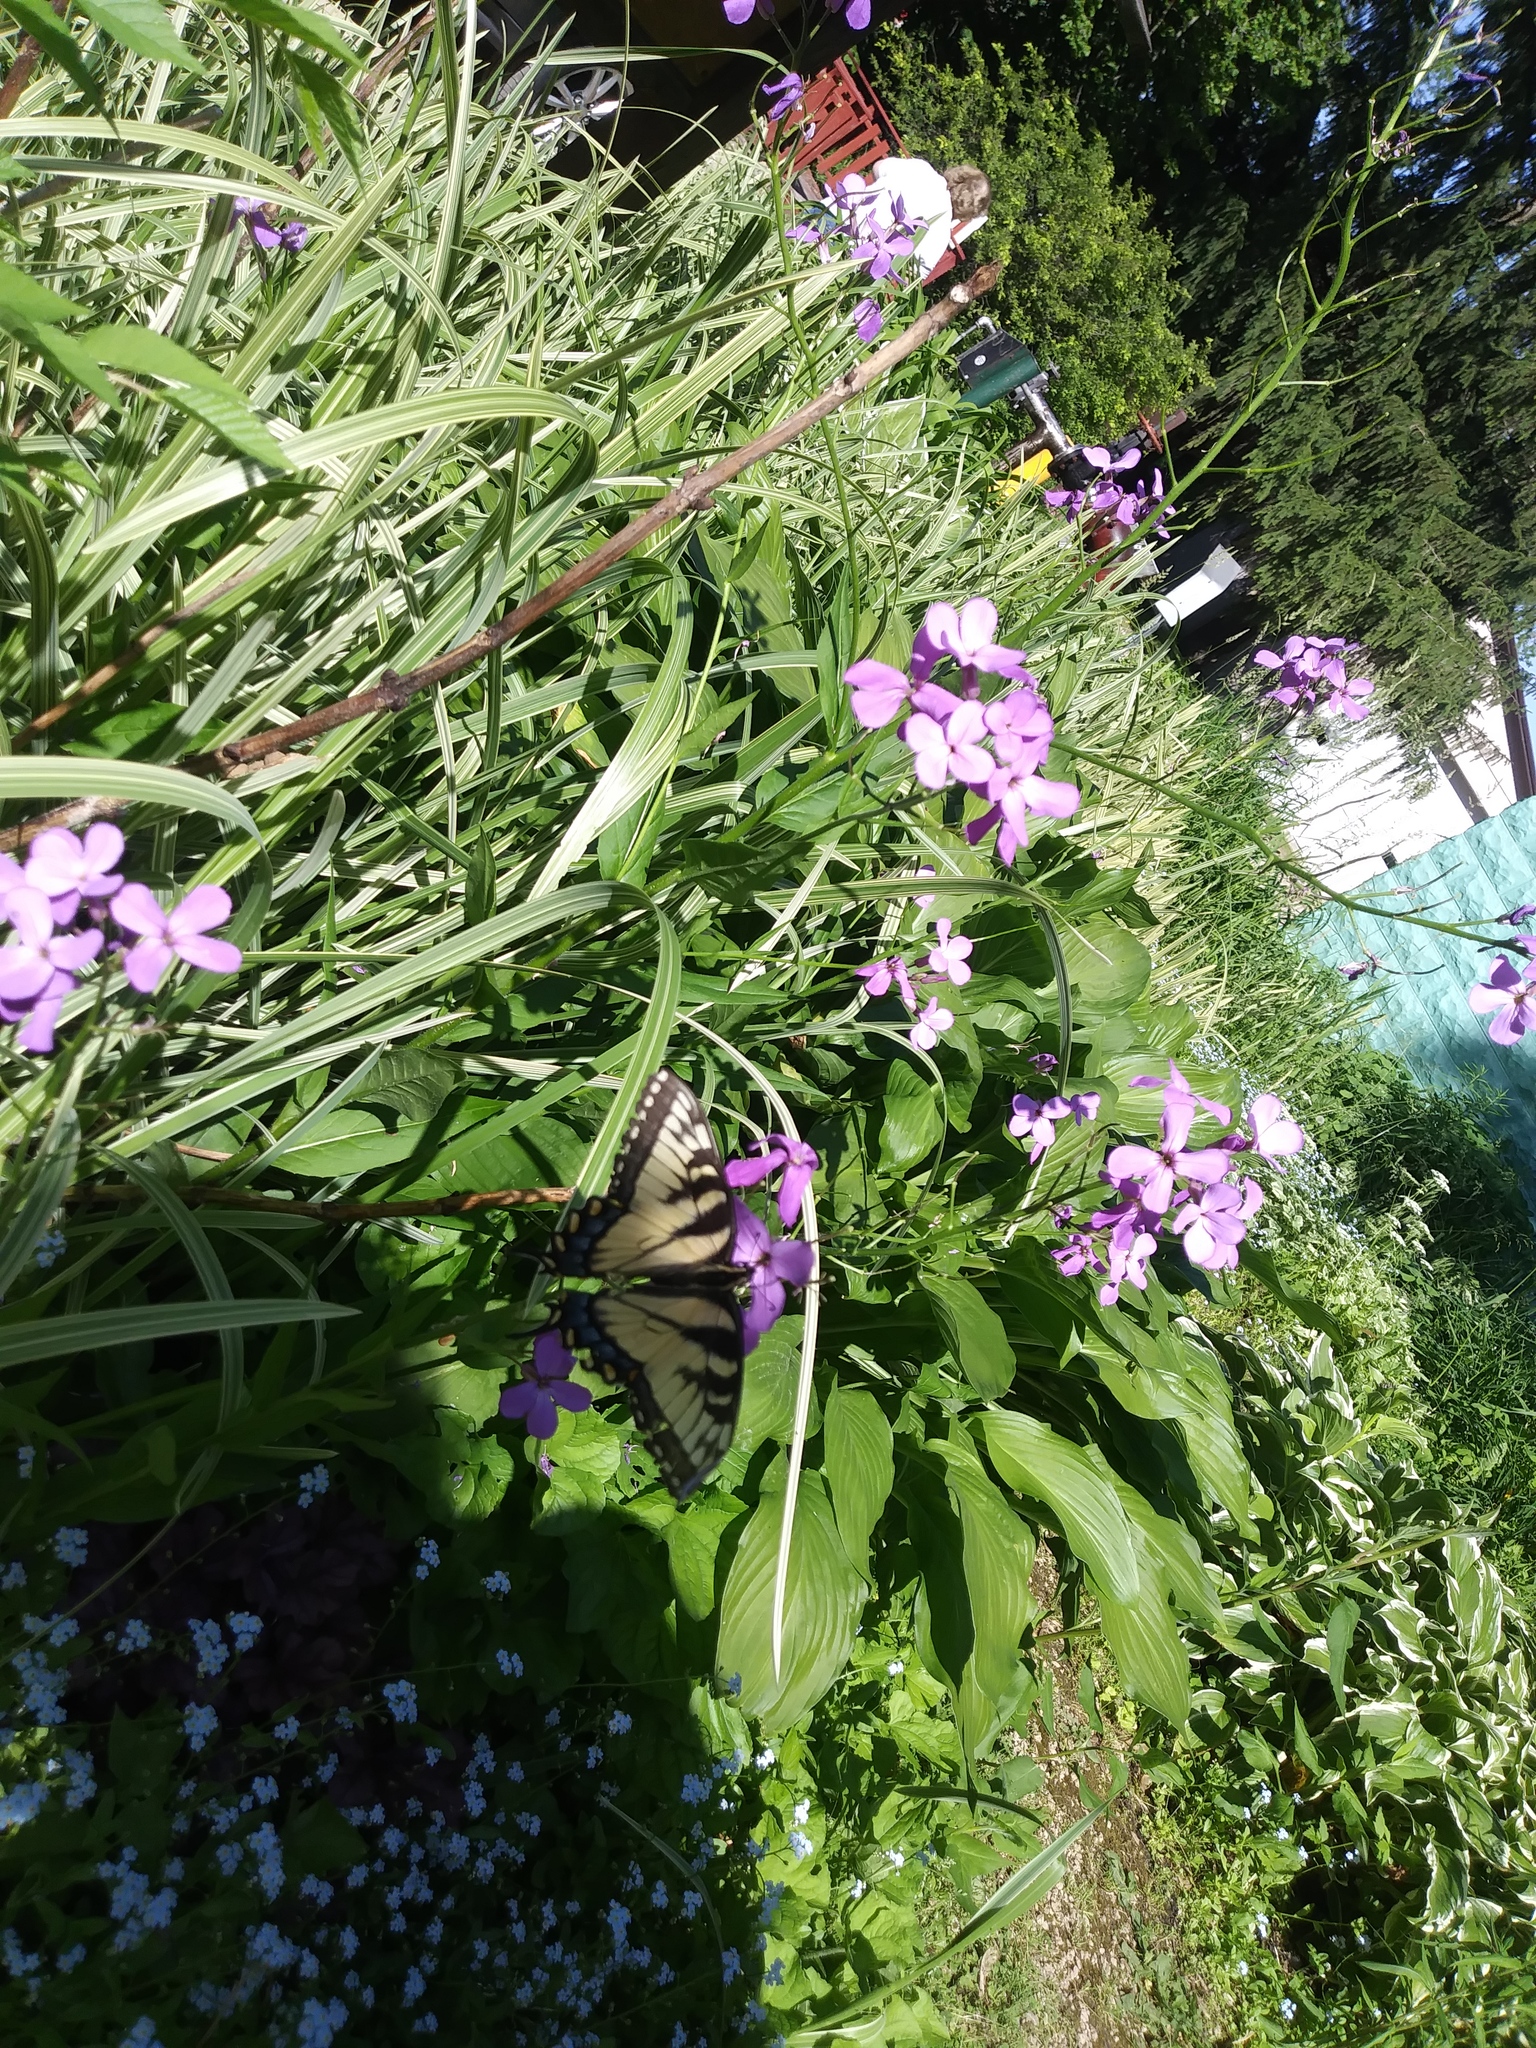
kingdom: Plantae
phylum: Tracheophyta
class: Magnoliopsida
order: Brassicales
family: Brassicaceae
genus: Hesperis
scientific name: Hesperis matronalis
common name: Dame's-violet
